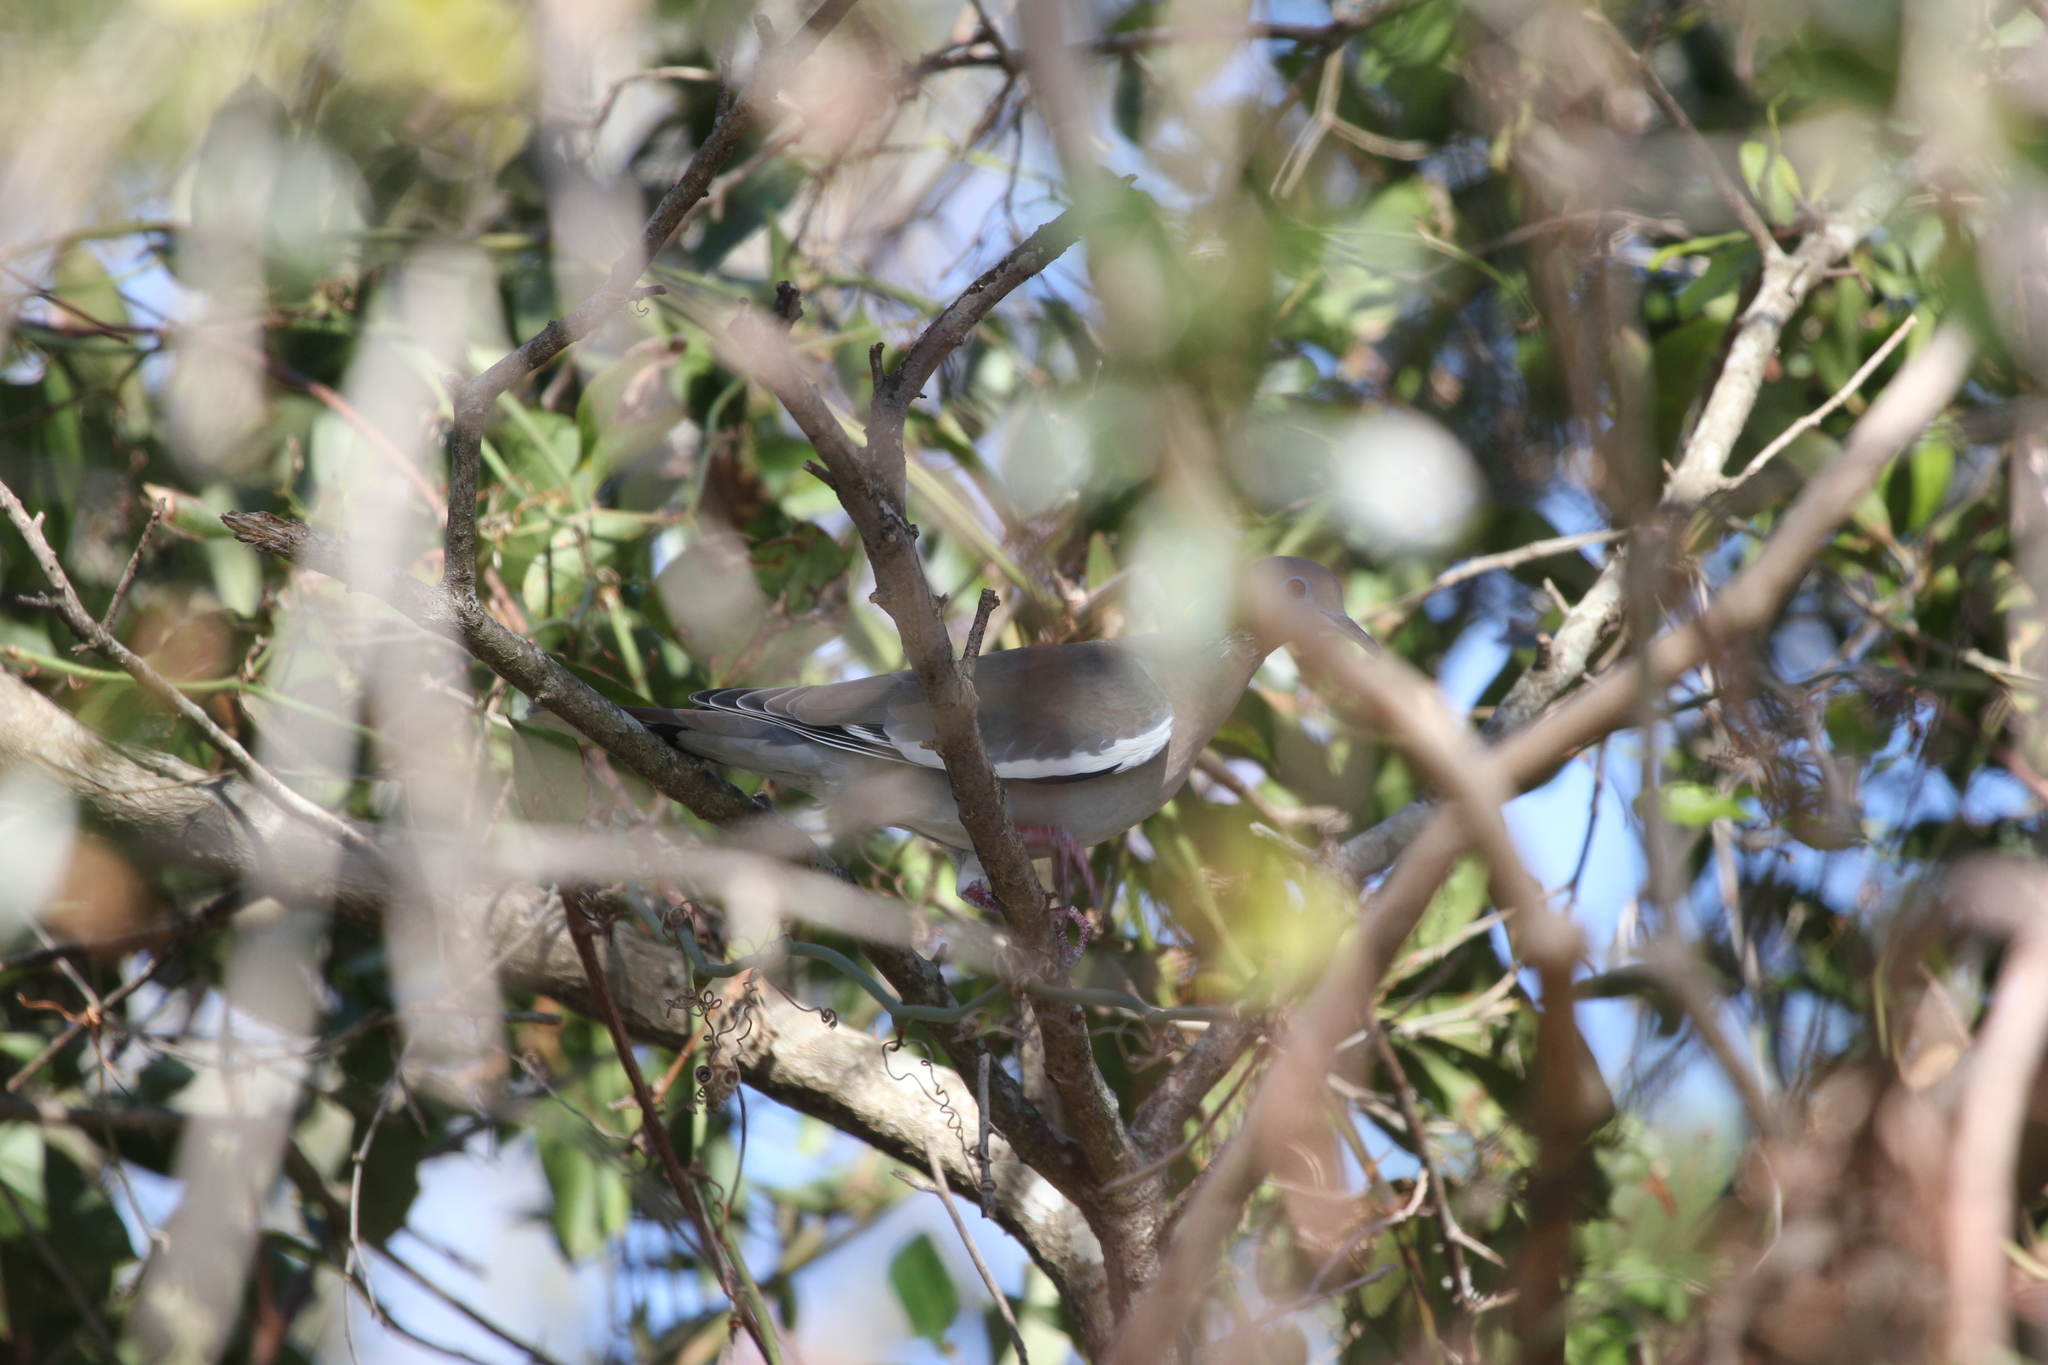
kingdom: Animalia
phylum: Chordata
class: Aves
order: Columbiformes
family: Columbidae
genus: Zenaida
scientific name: Zenaida asiatica
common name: White-winged dove
